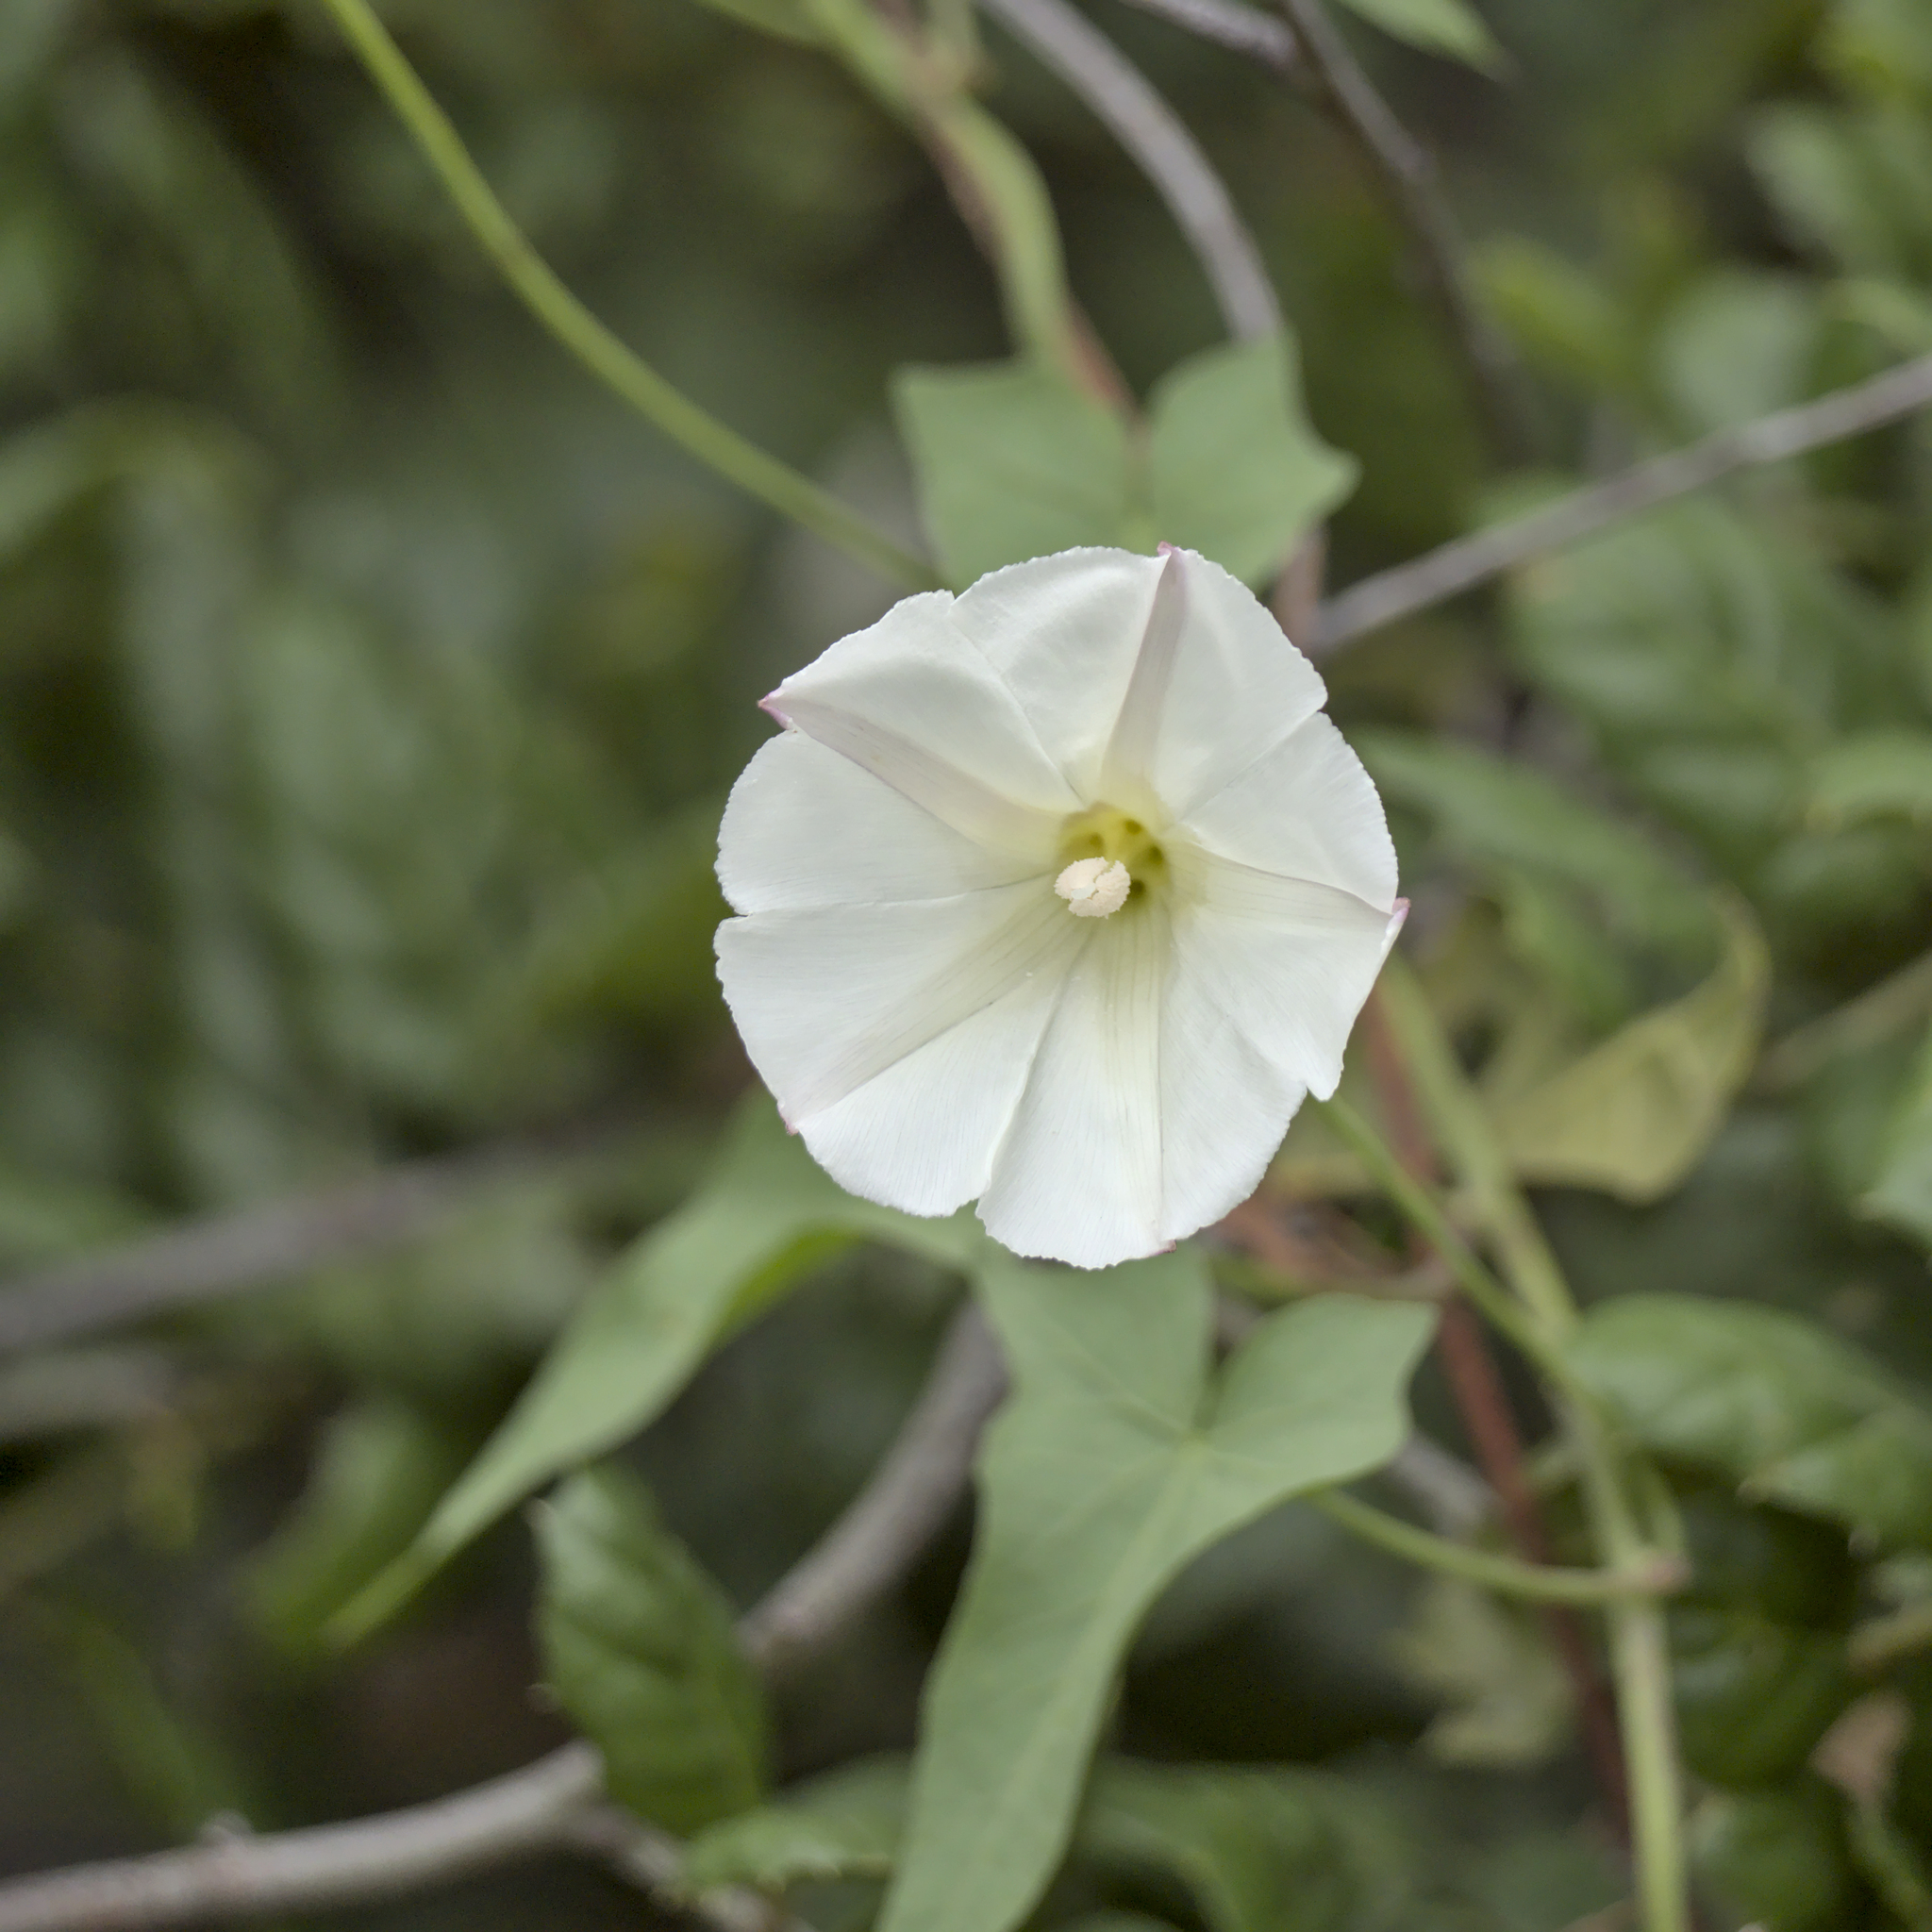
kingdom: Plantae
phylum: Tracheophyta
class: Magnoliopsida
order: Solanales
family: Convolvulaceae
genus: Calystegia
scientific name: Calystegia macrostegia
